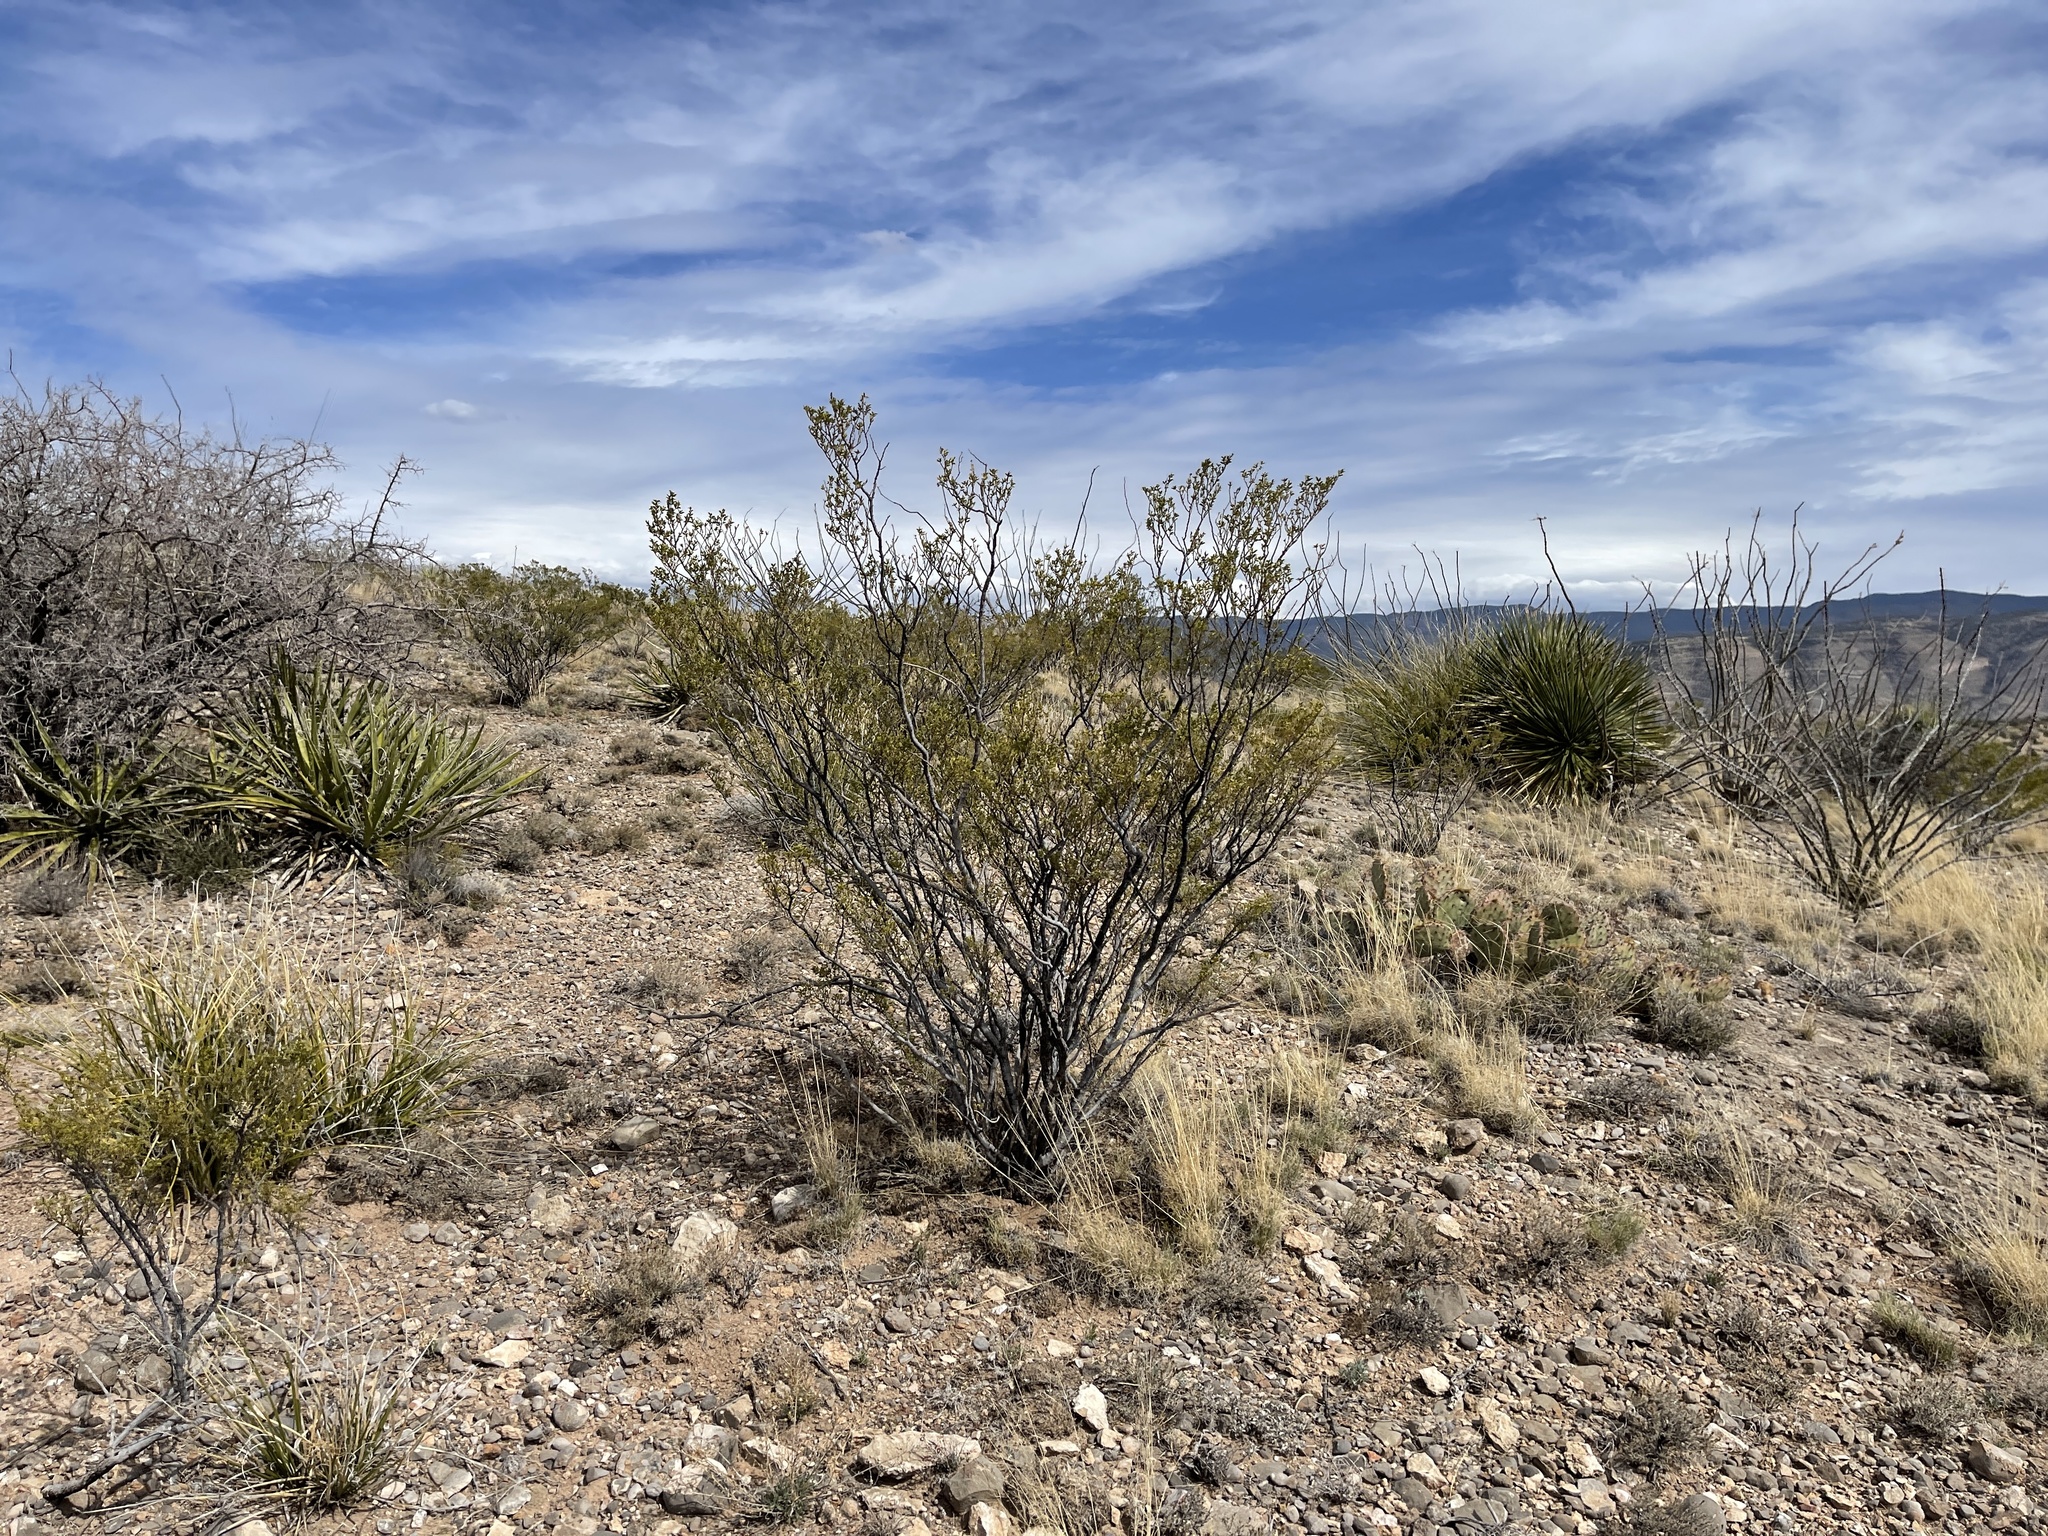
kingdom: Plantae
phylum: Tracheophyta
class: Magnoliopsida
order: Zygophyllales
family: Zygophyllaceae
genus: Larrea
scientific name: Larrea tridentata
